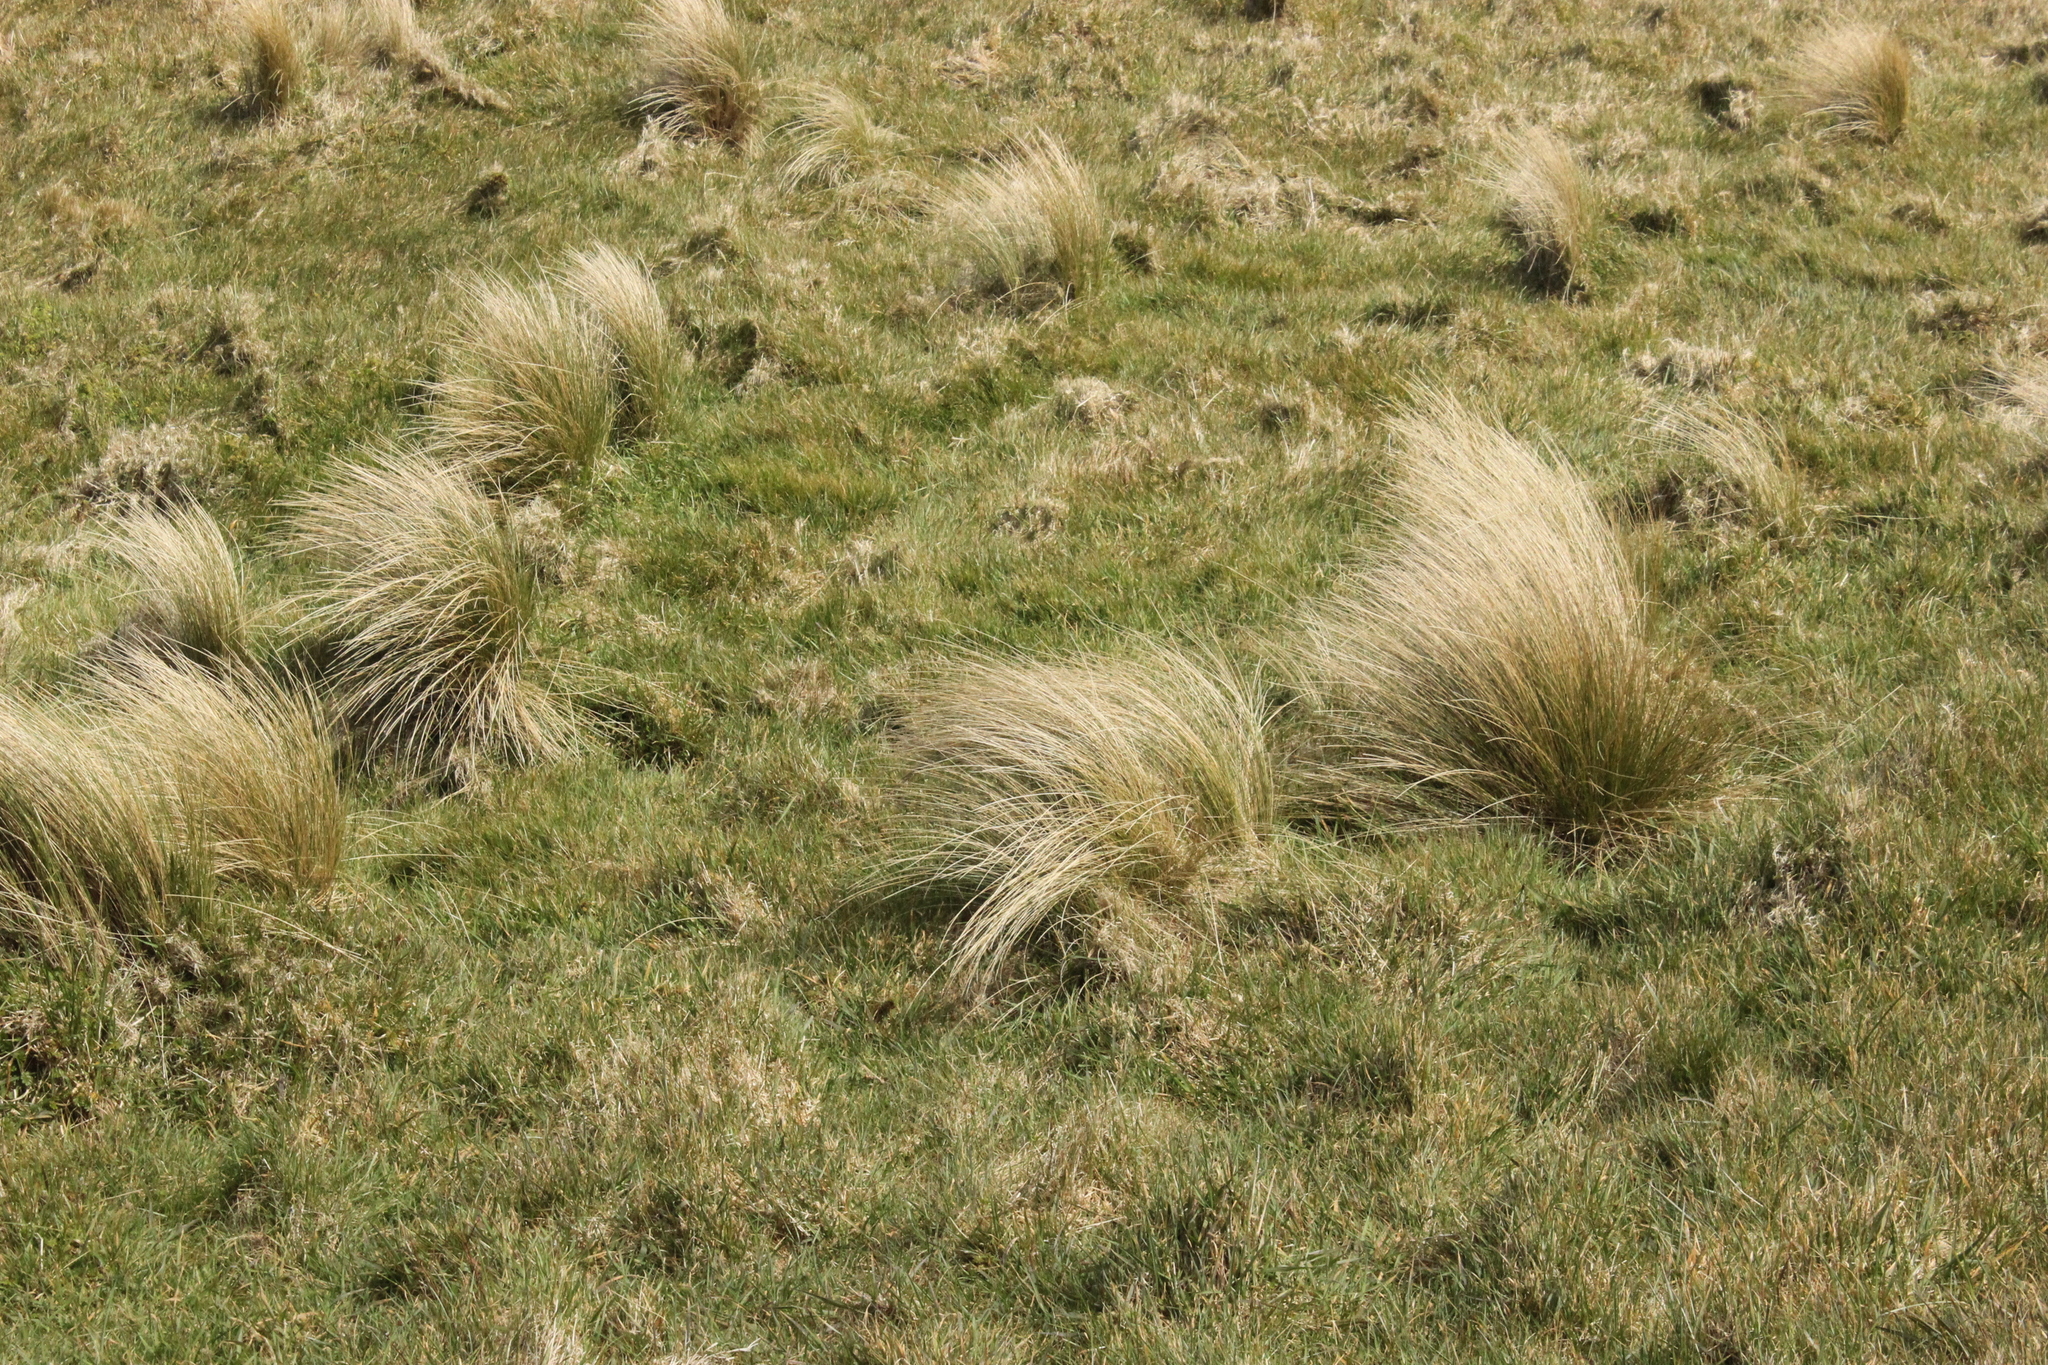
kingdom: Plantae
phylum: Tracheophyta
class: Liliopsida
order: Poales
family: Poaceae
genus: Poa
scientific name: Poa cita
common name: Silver tussock
